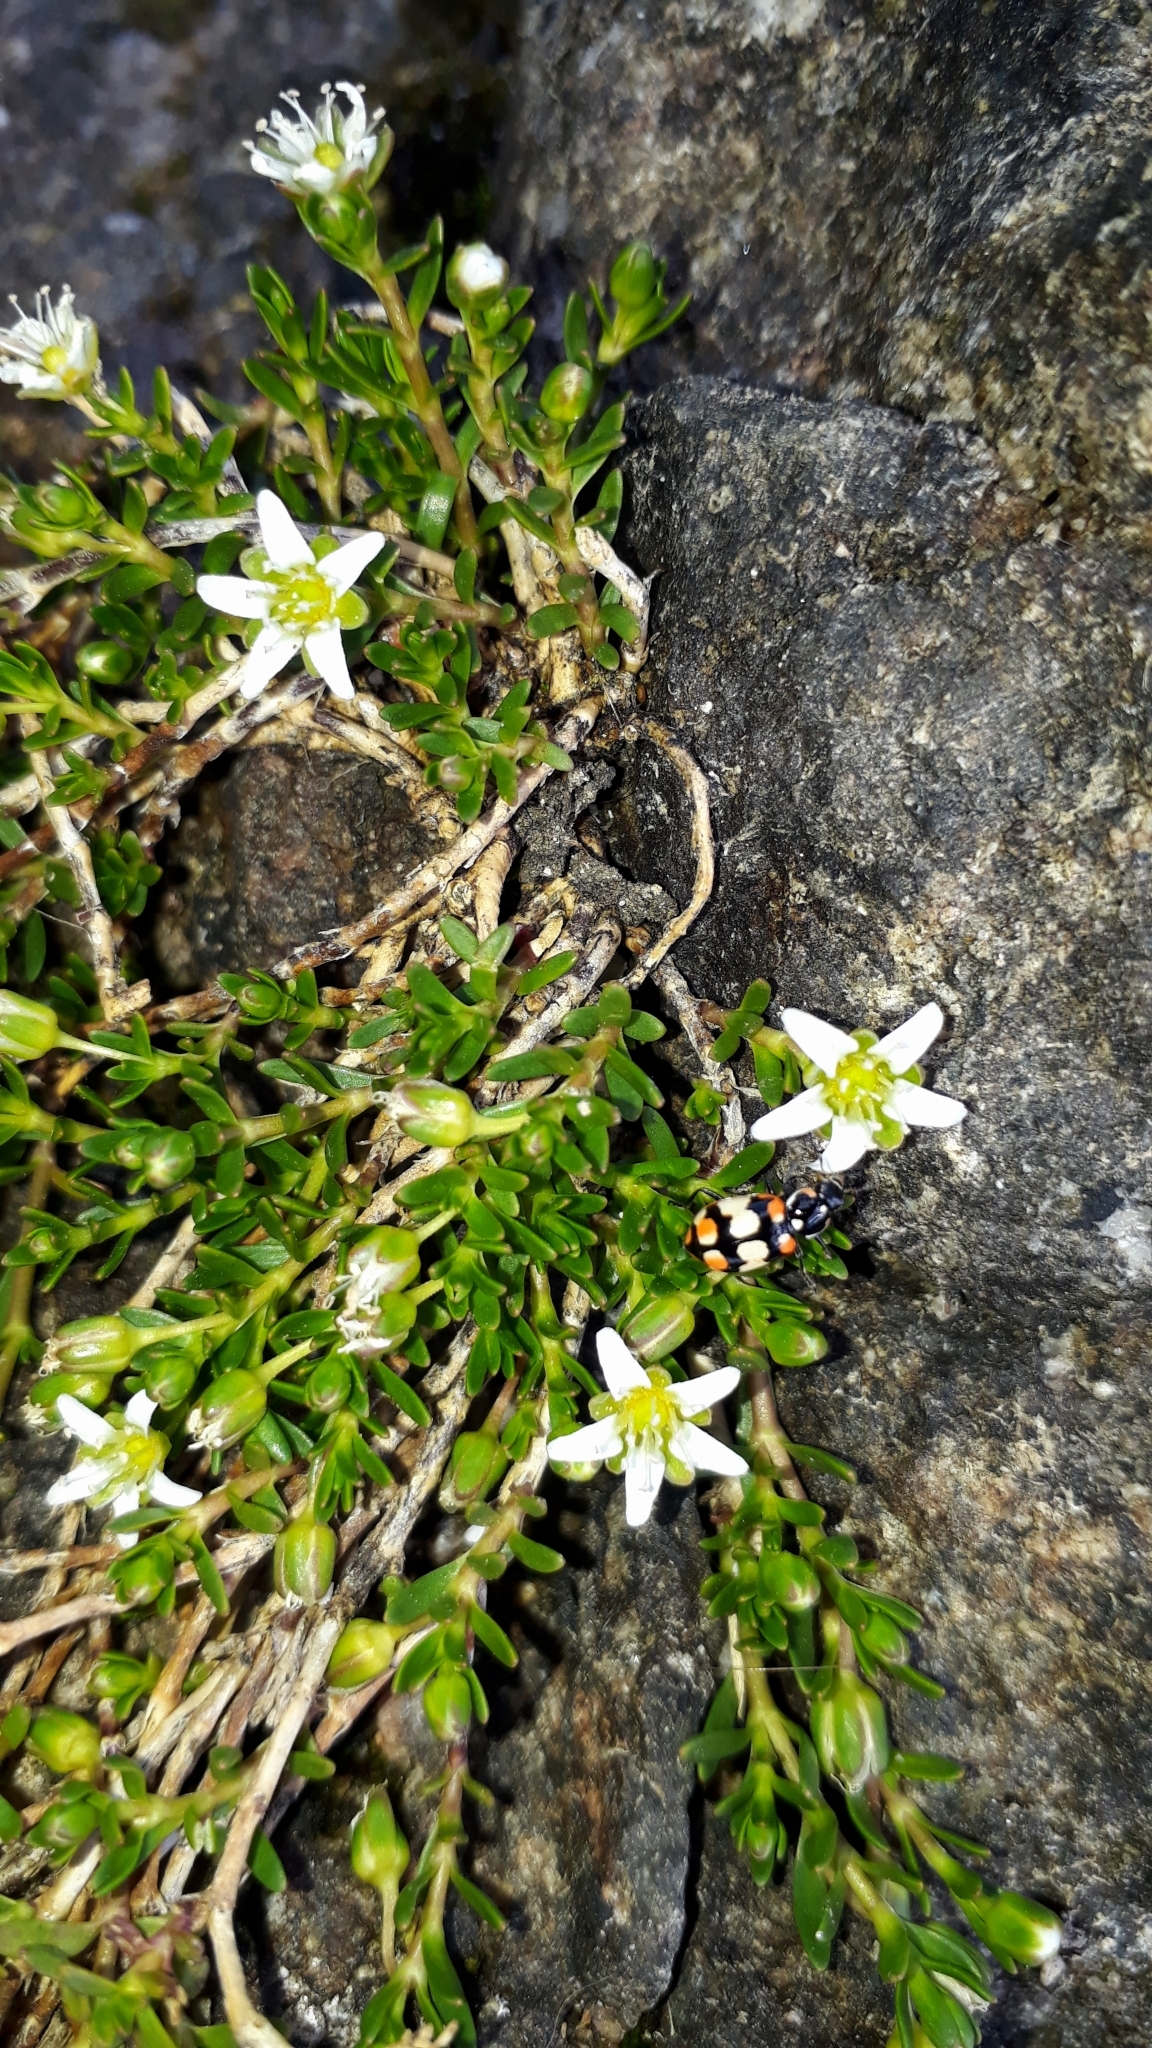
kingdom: Plantae
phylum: Tracheophyta
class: Magnoliopsida
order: Caryophyllales
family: Caryophyllaceae
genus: Arenaria
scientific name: Arenaria serpens
